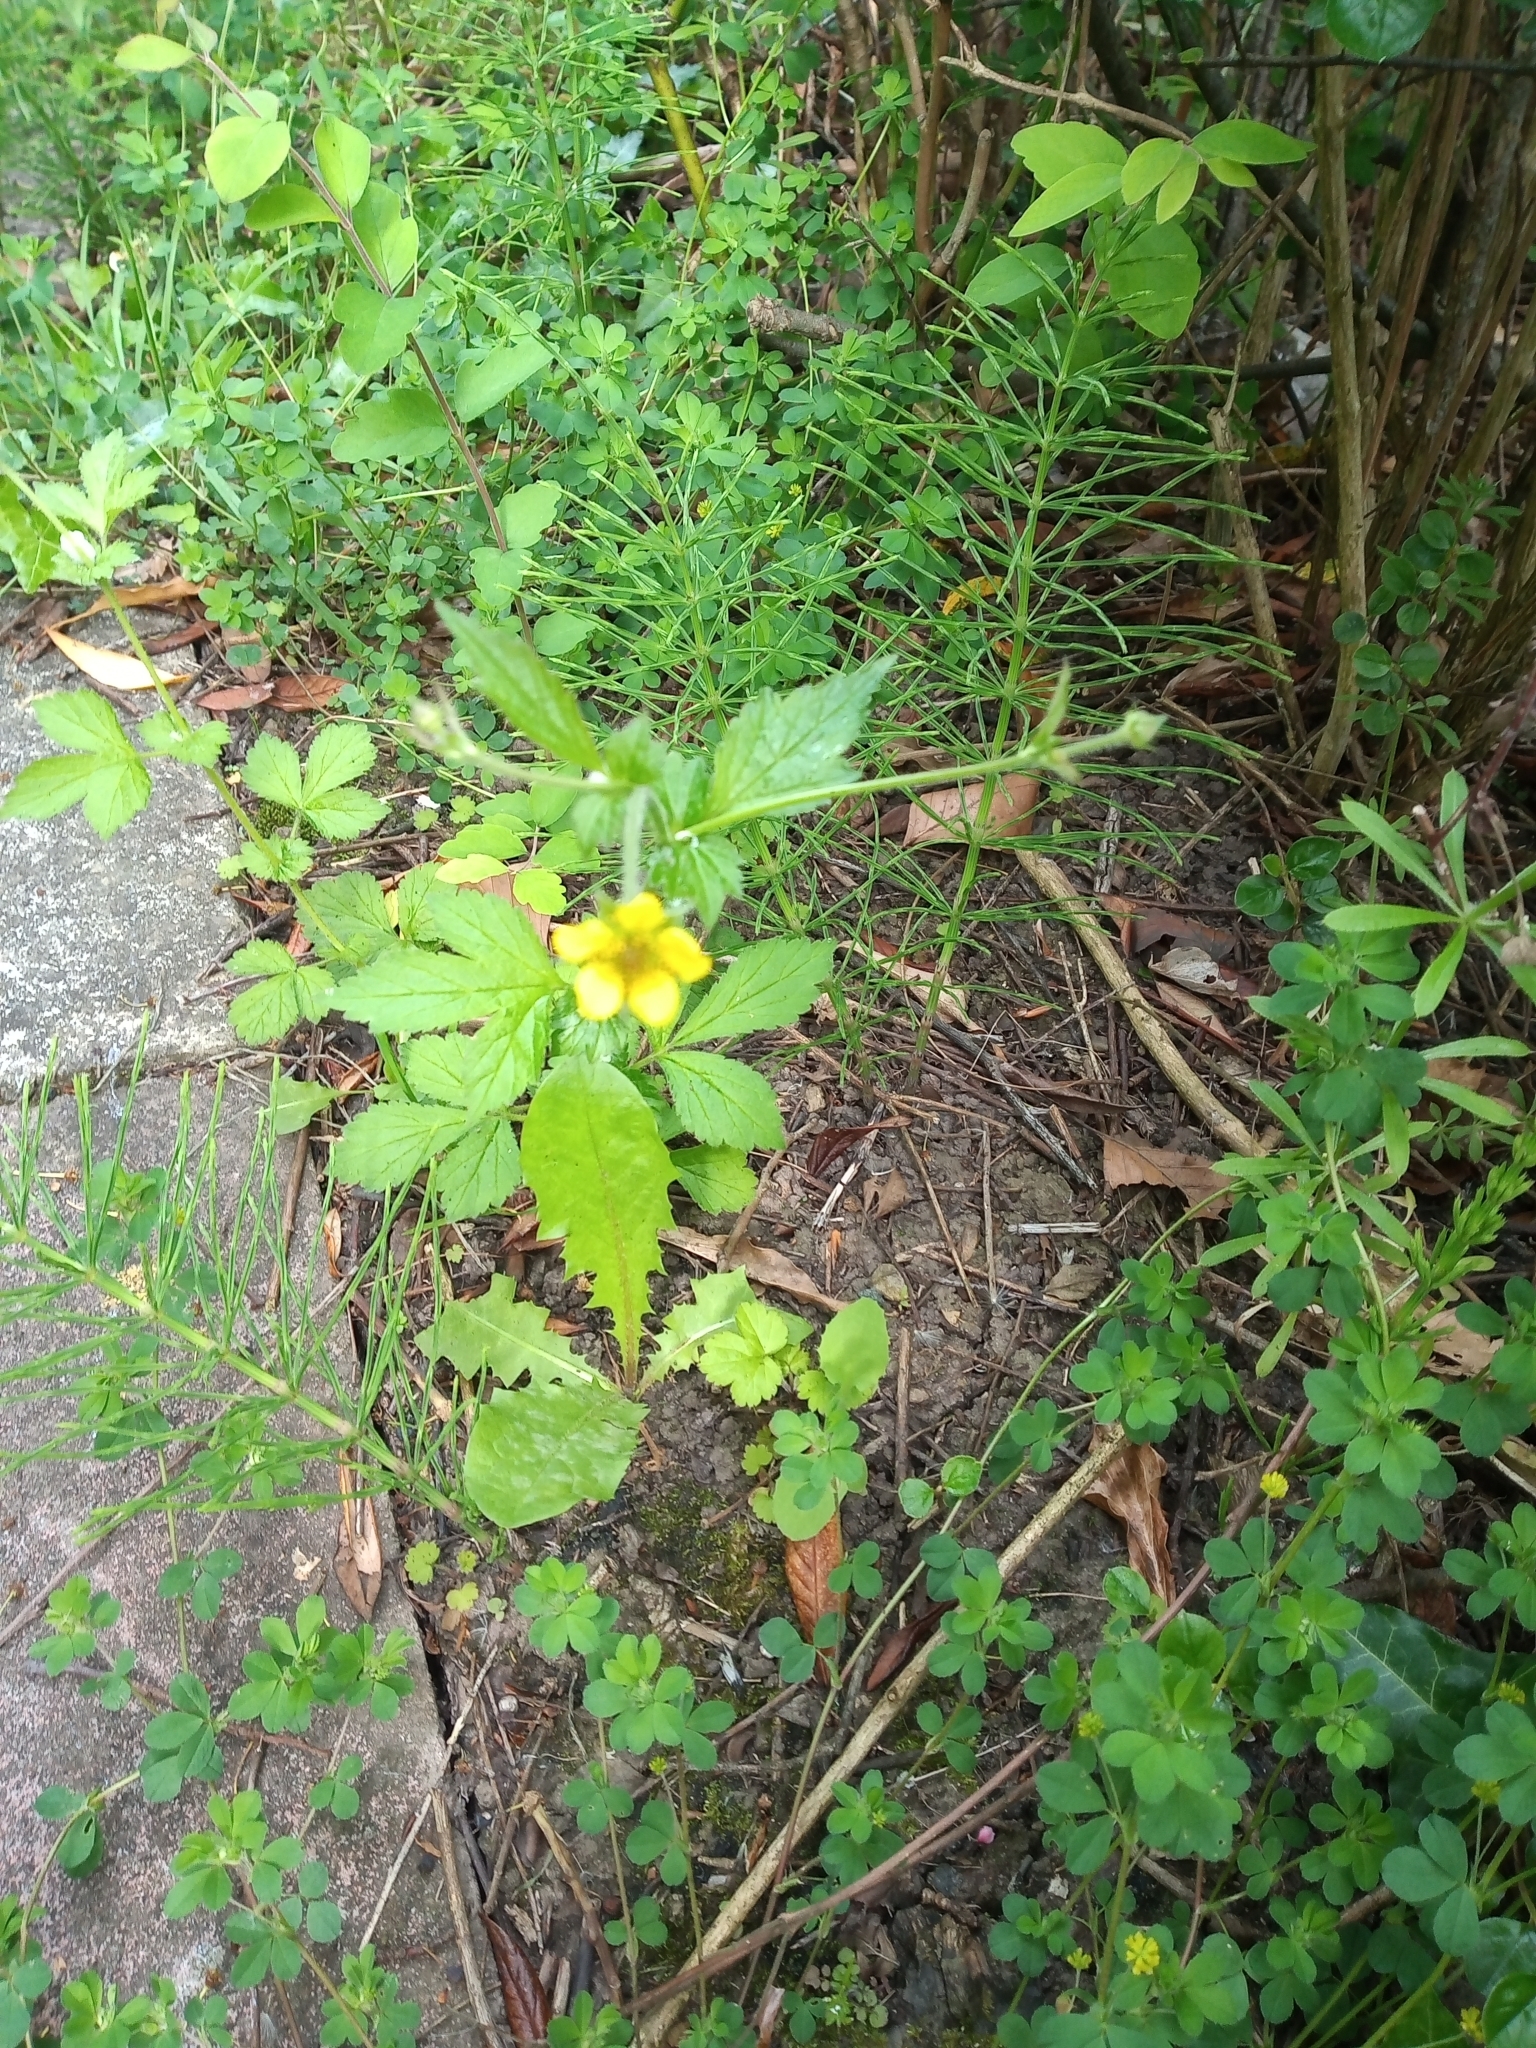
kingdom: Plantae
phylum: Tracheophyta
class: Magnoliopsida
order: Rosales
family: Rosaceae
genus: Geum
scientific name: Geum urbanum
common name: Wood avens
